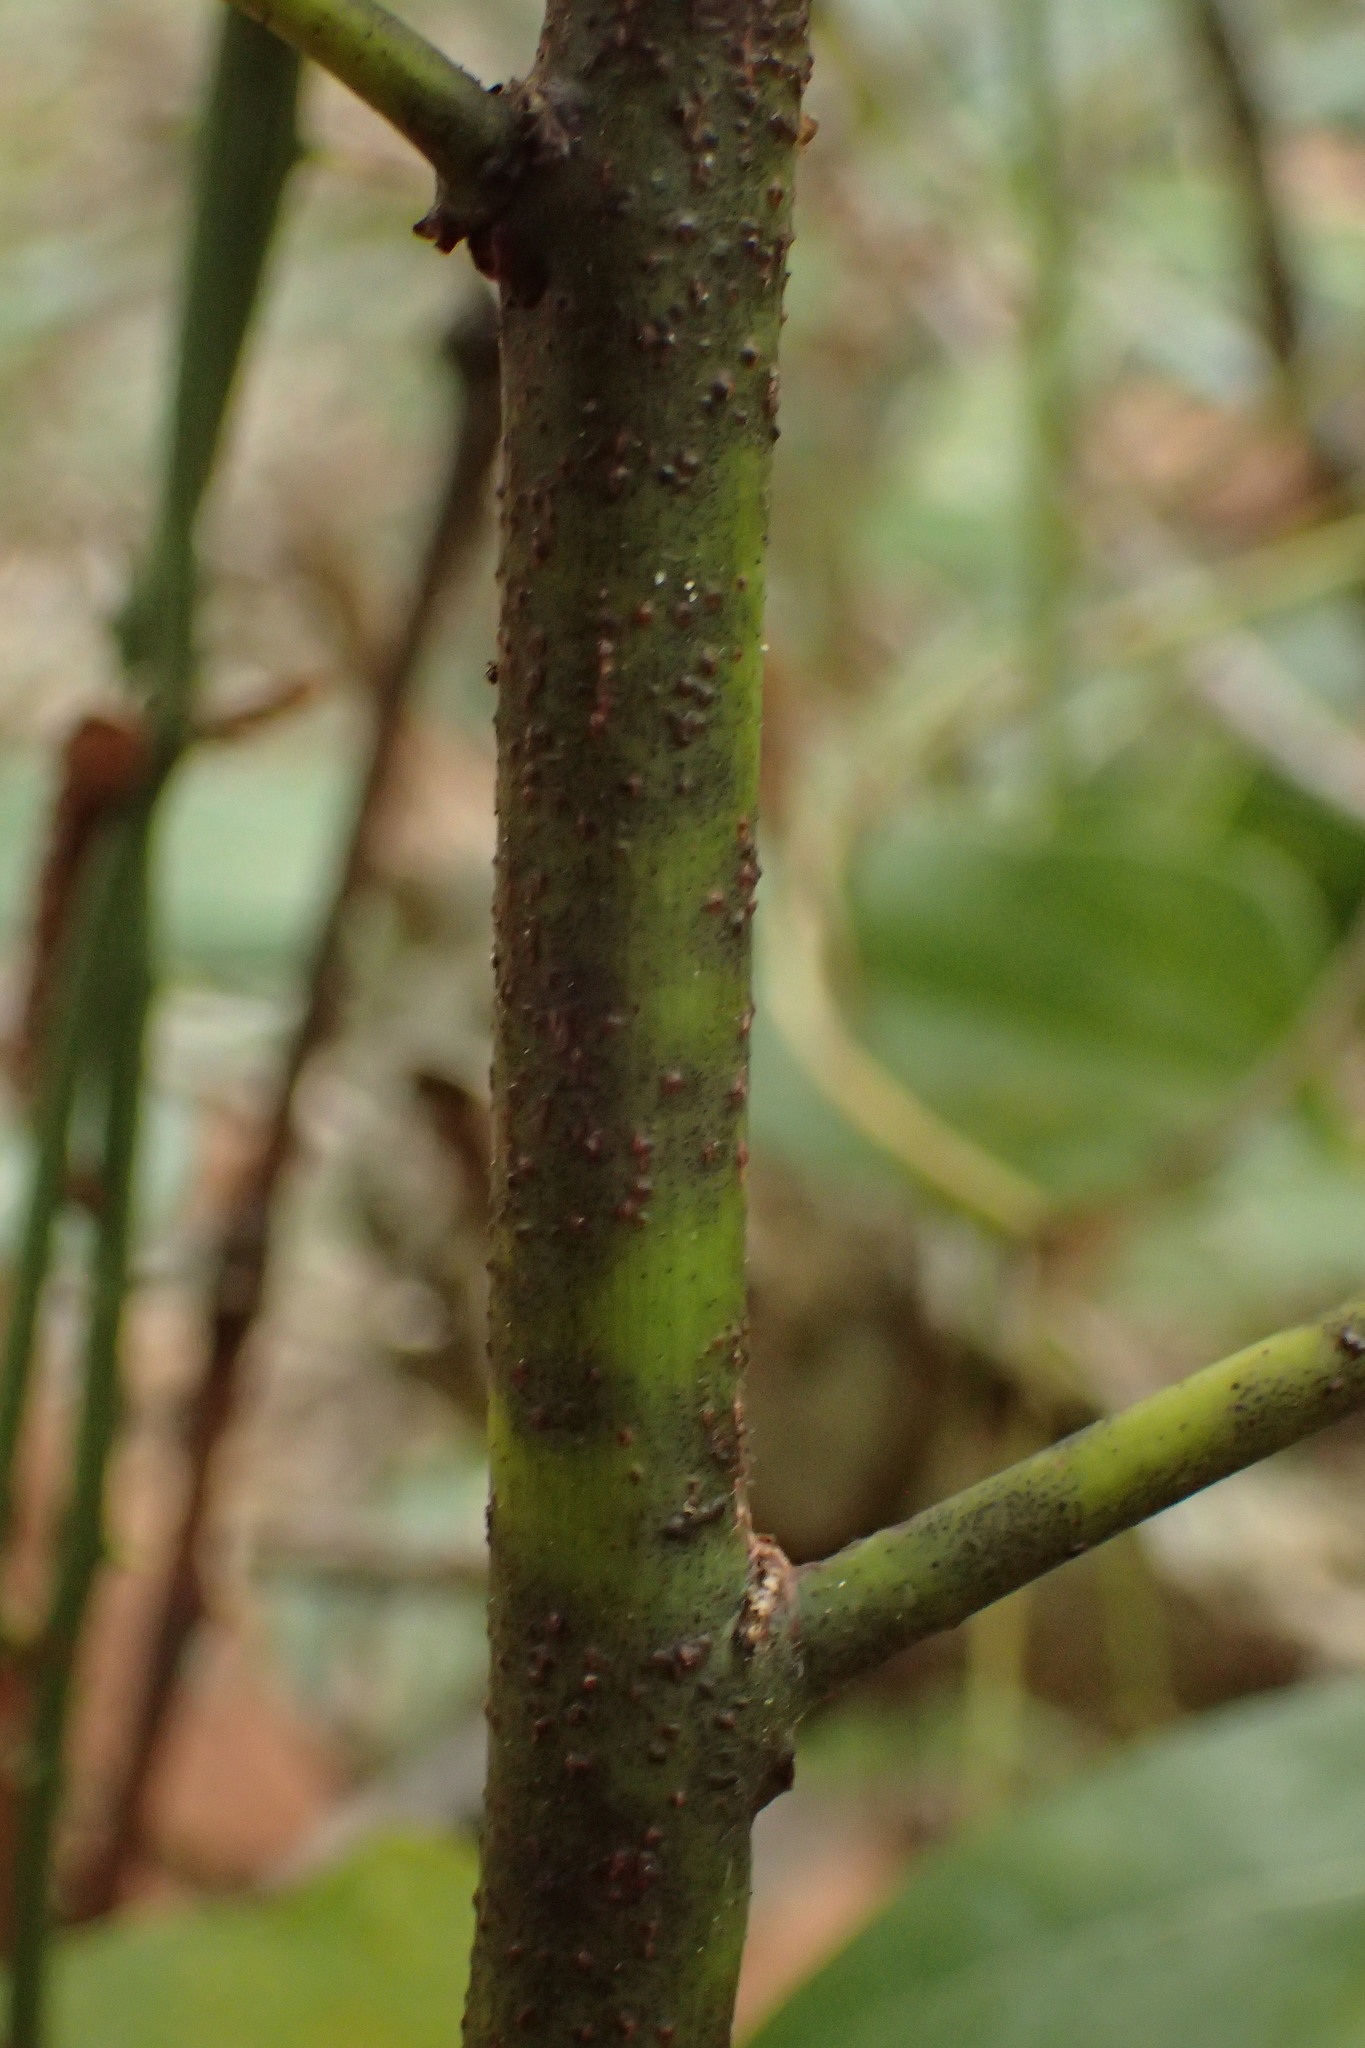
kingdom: Plantae
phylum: Tracheophyta
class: Magnoliopsida
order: Laurales
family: Lauraceae
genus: Persea
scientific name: Persea borbonia
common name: Redbay
